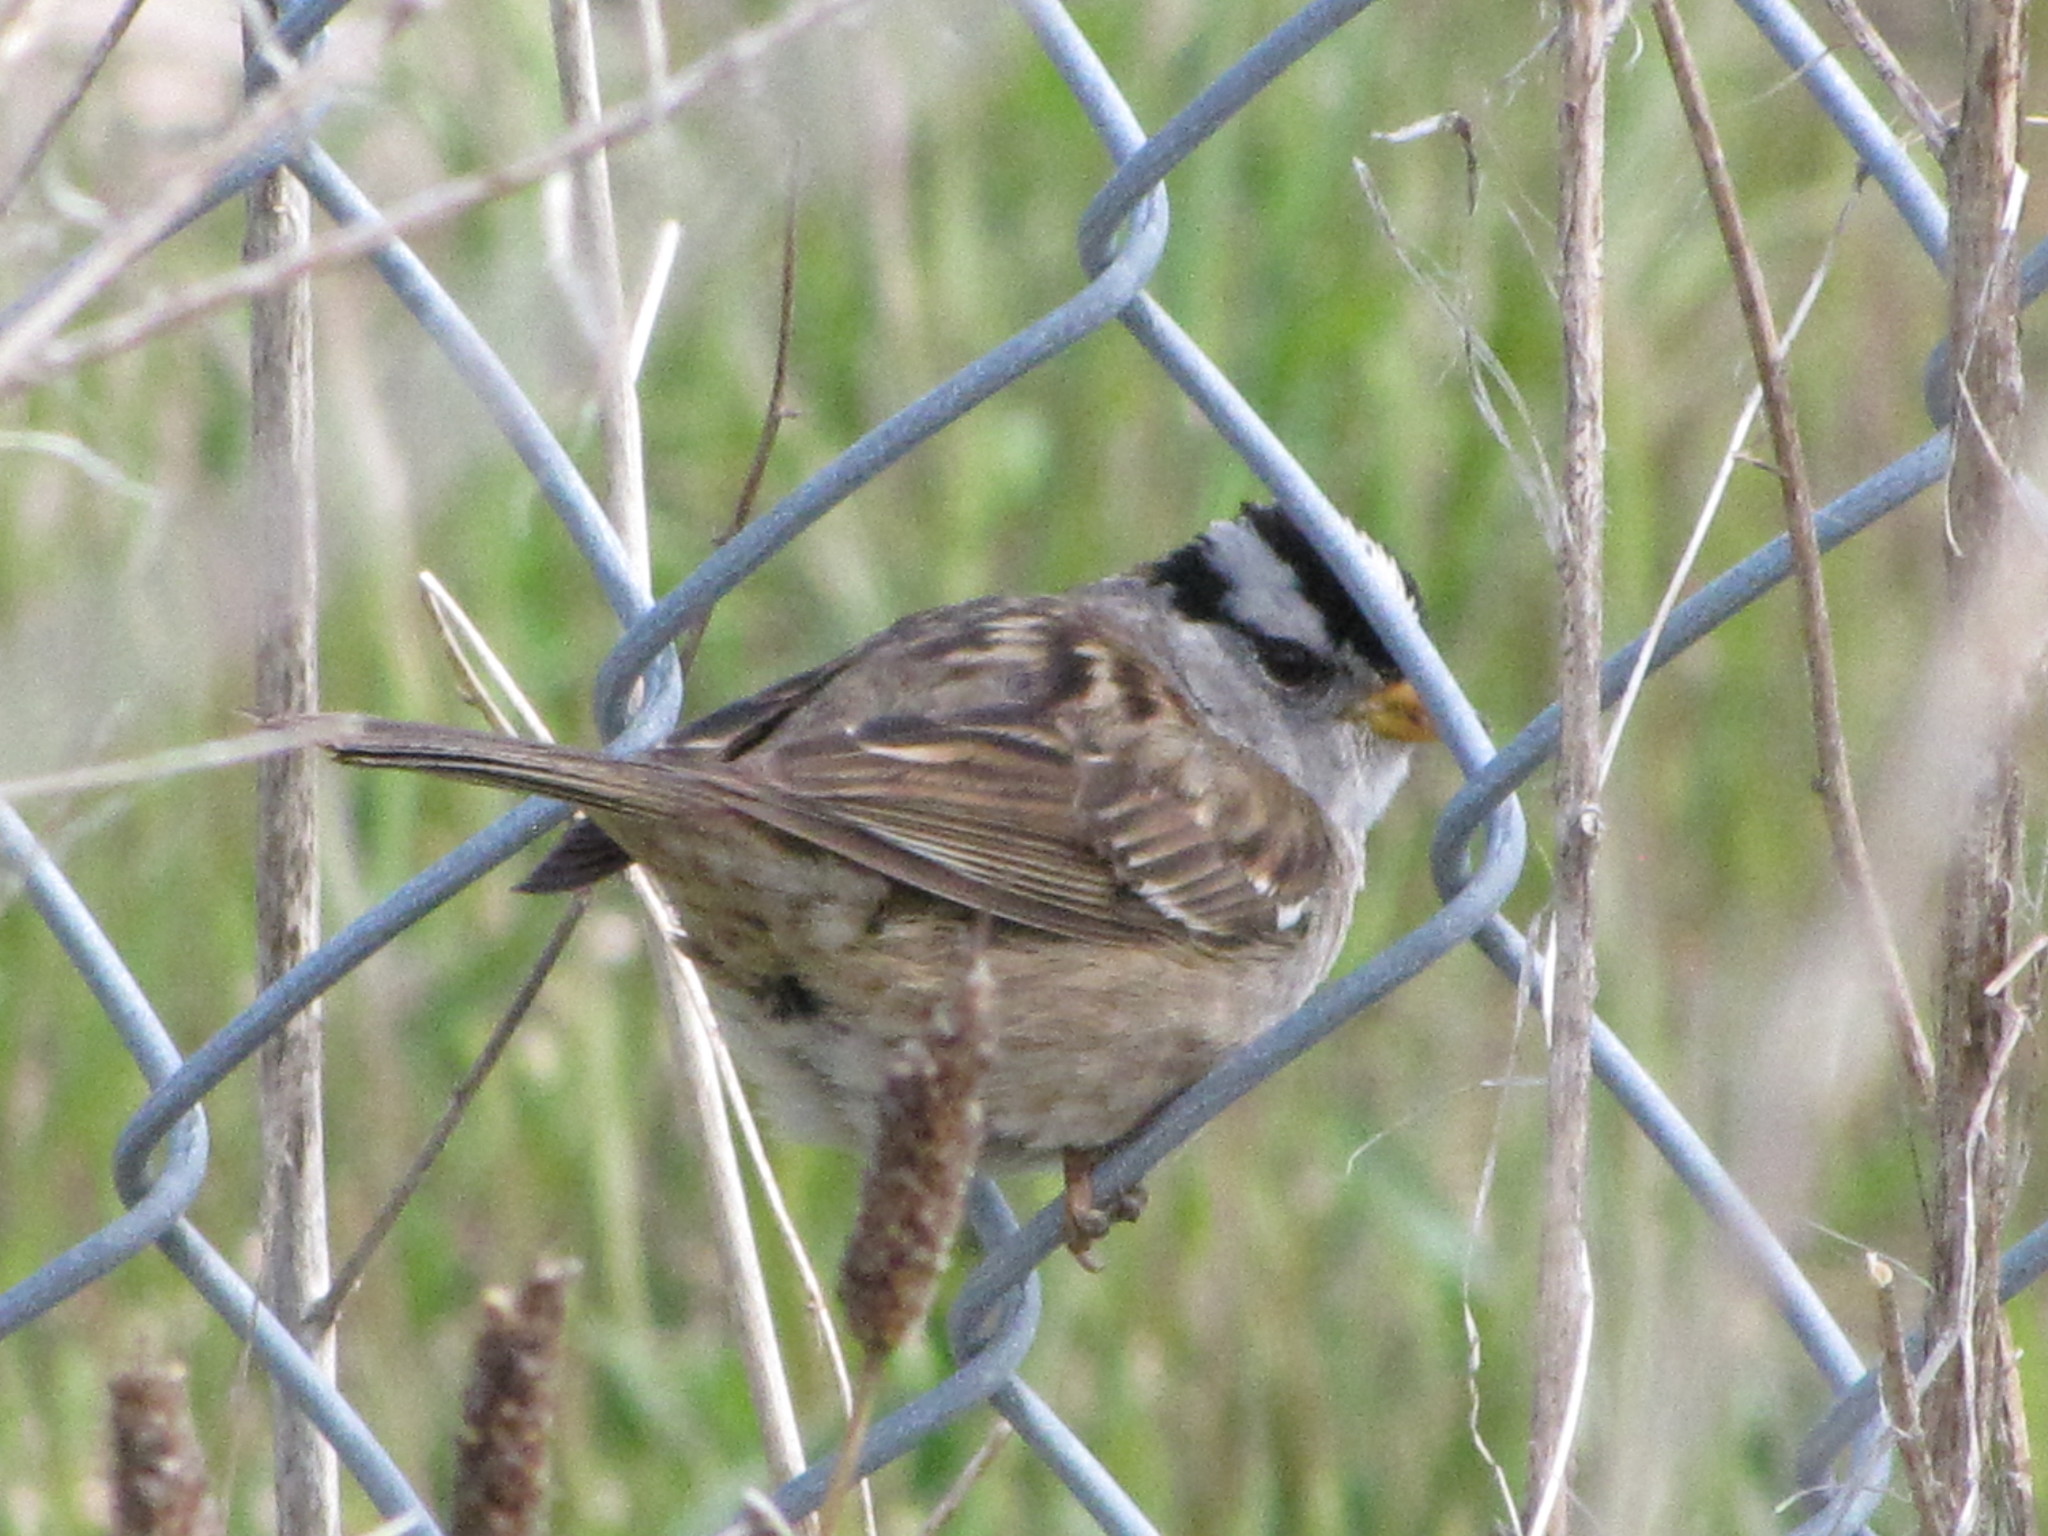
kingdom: Animalia
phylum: Chordata
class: Aves
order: Passeriformes
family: Passerellidae
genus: Zonotrichia
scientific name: Zonotrichia leucophrys
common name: White-crowned sparrow
